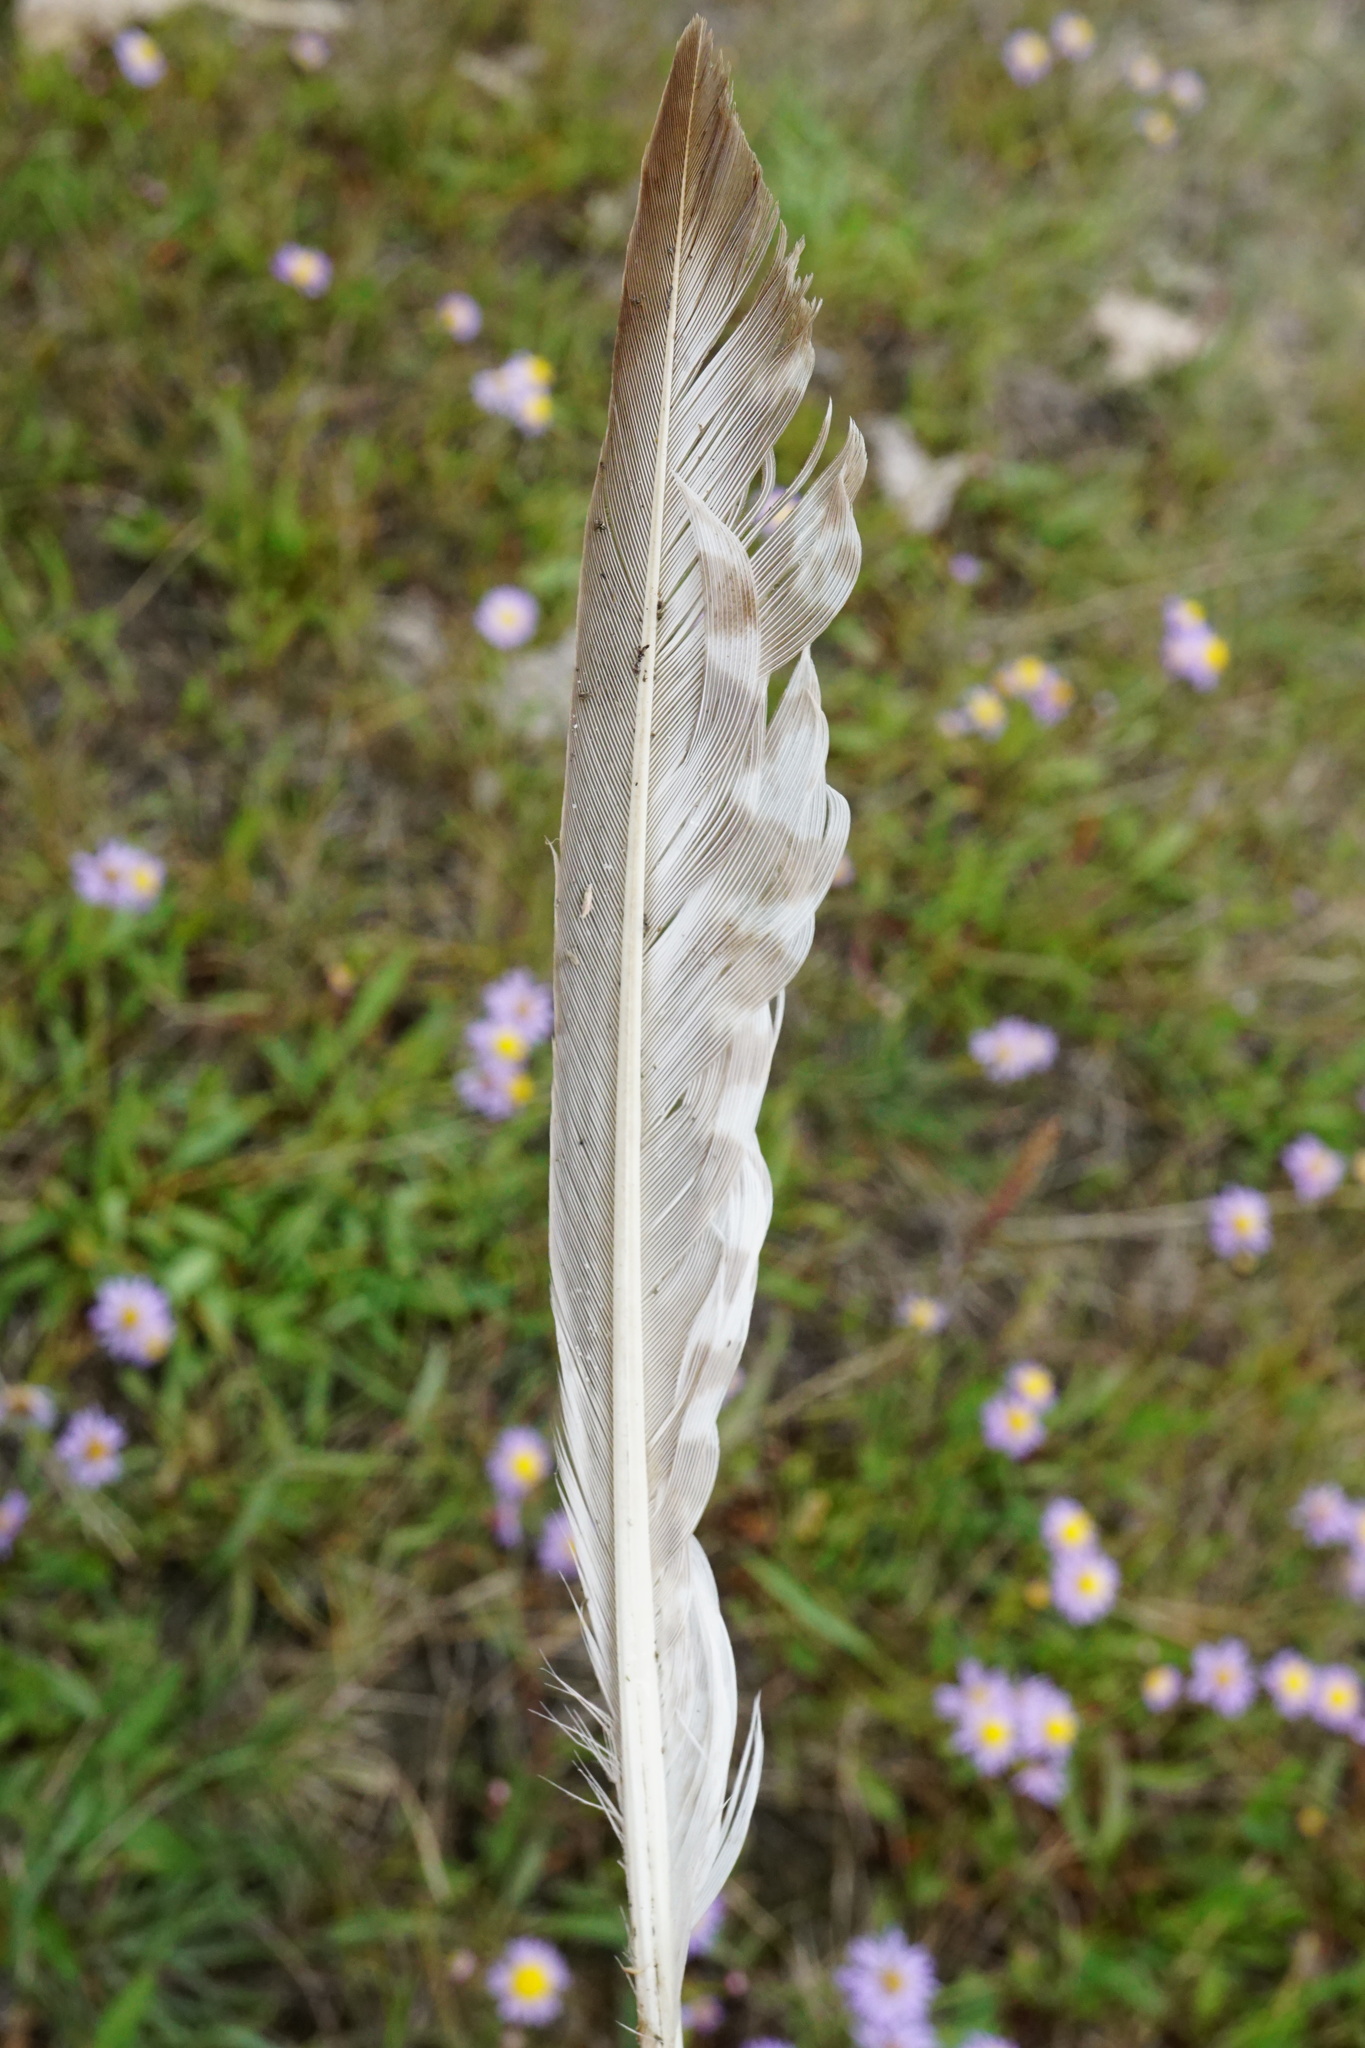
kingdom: Animalia
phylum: Chordata
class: Aves
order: Charadriiformes
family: Scolopacidae
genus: Numenius
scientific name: Numenius arquata
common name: Eurasian curlew
